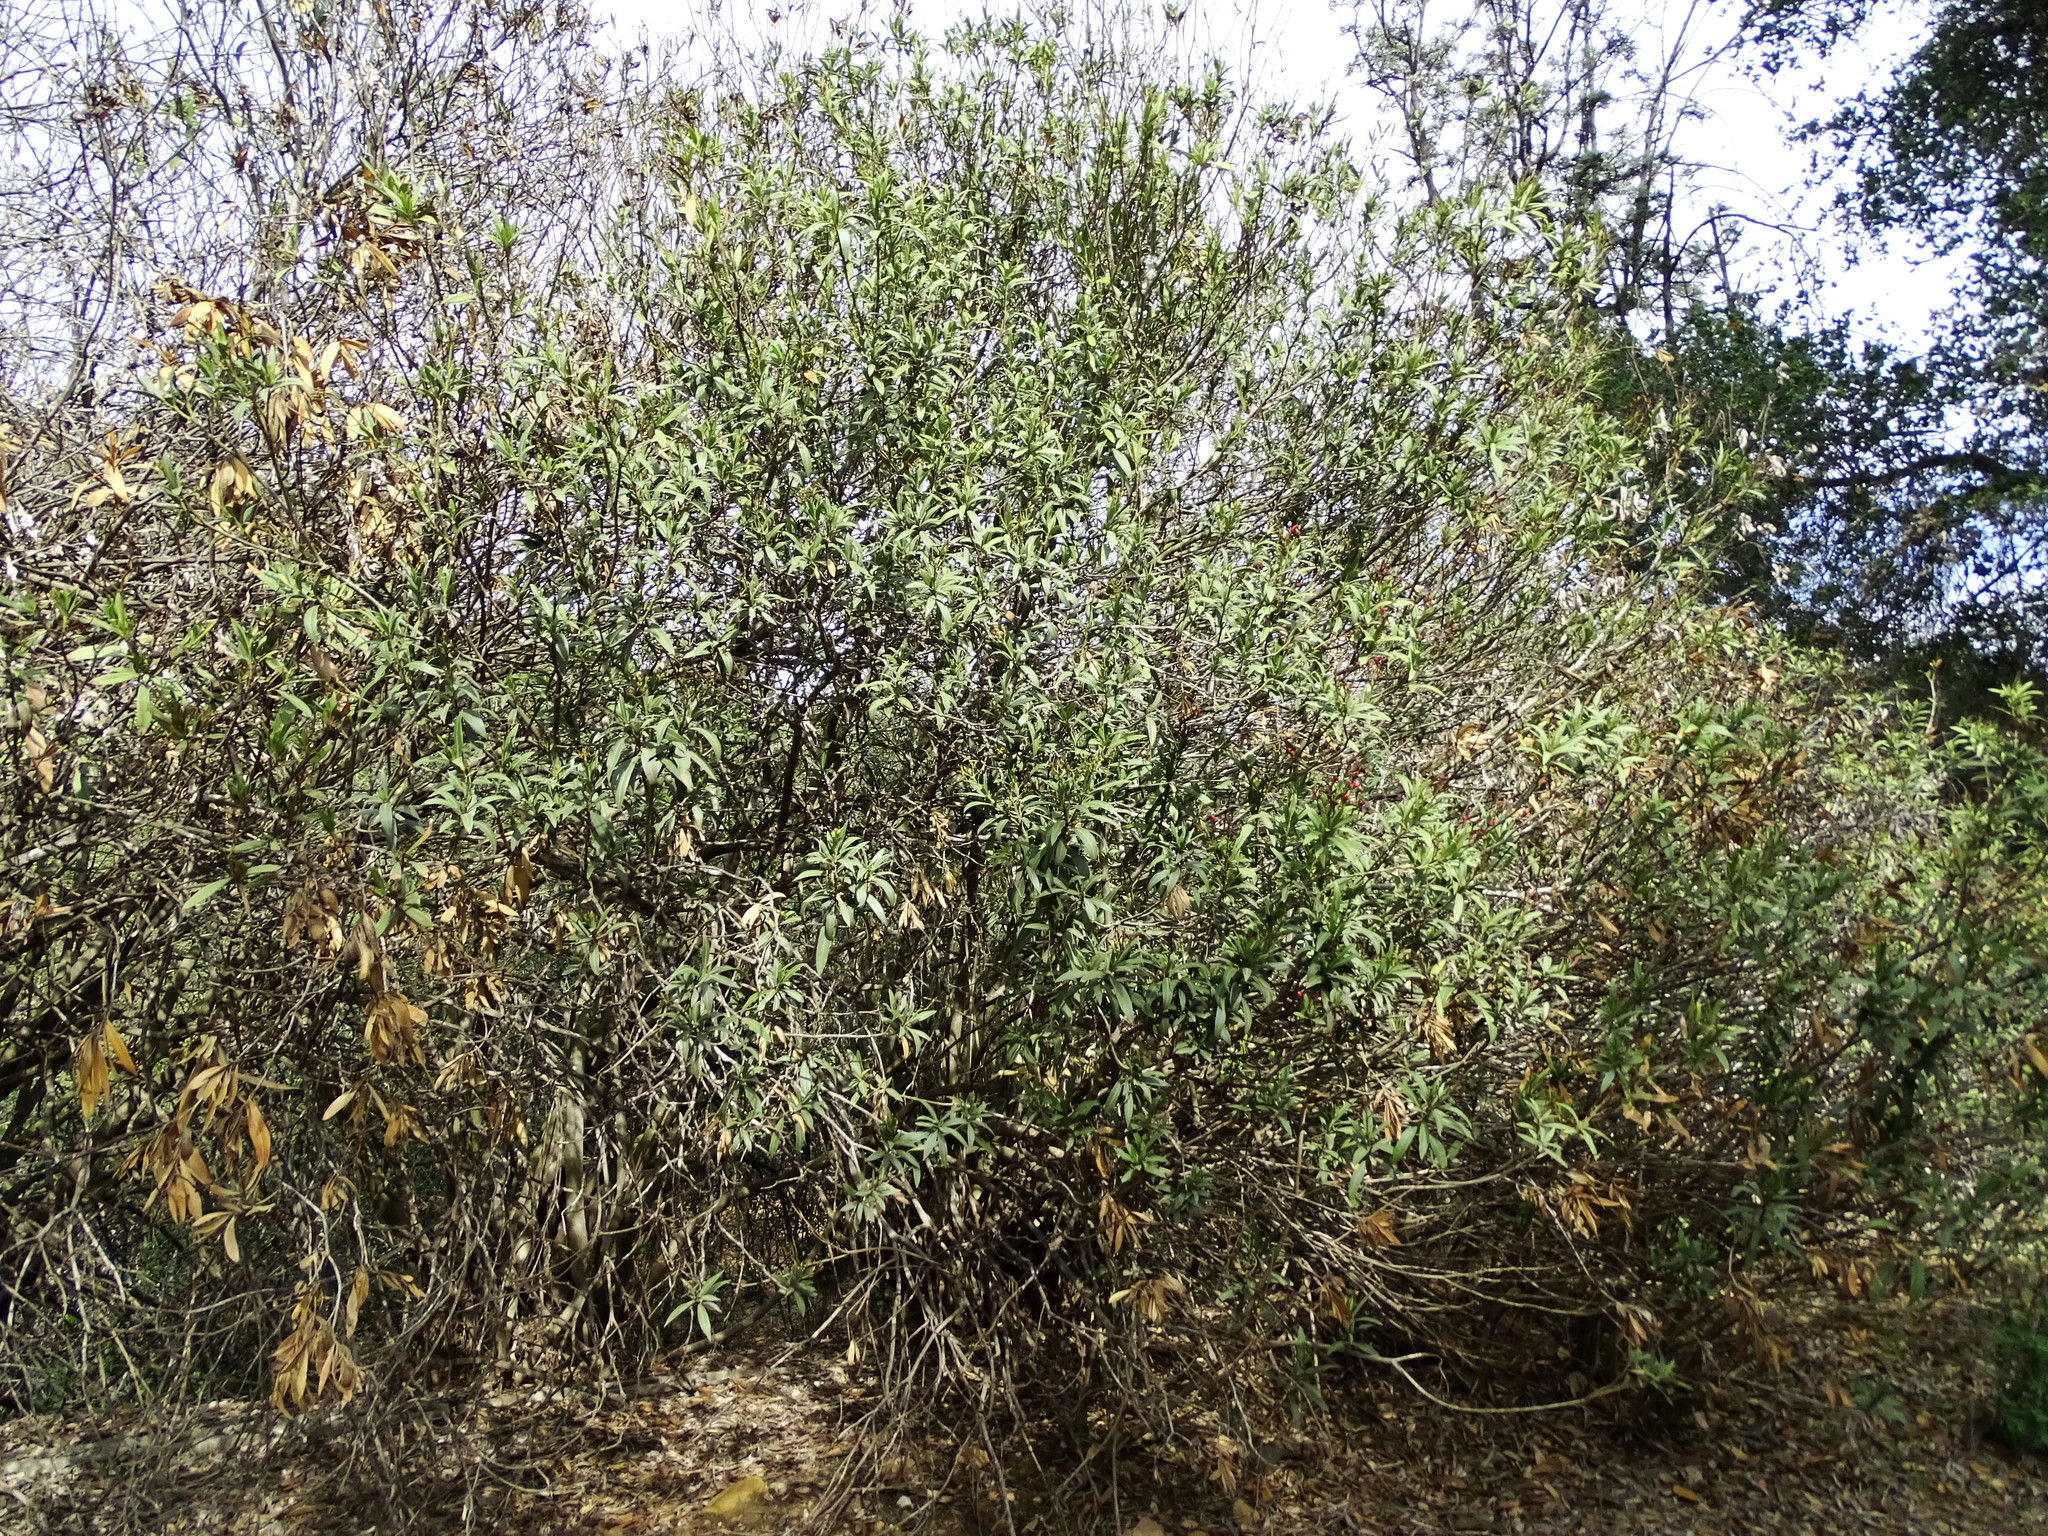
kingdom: Plantae
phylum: Tracheophyta
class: Magnoliopsida
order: Gentianales
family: Apocynaceae
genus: Nerium
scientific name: Nerium oleander
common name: Oleander
